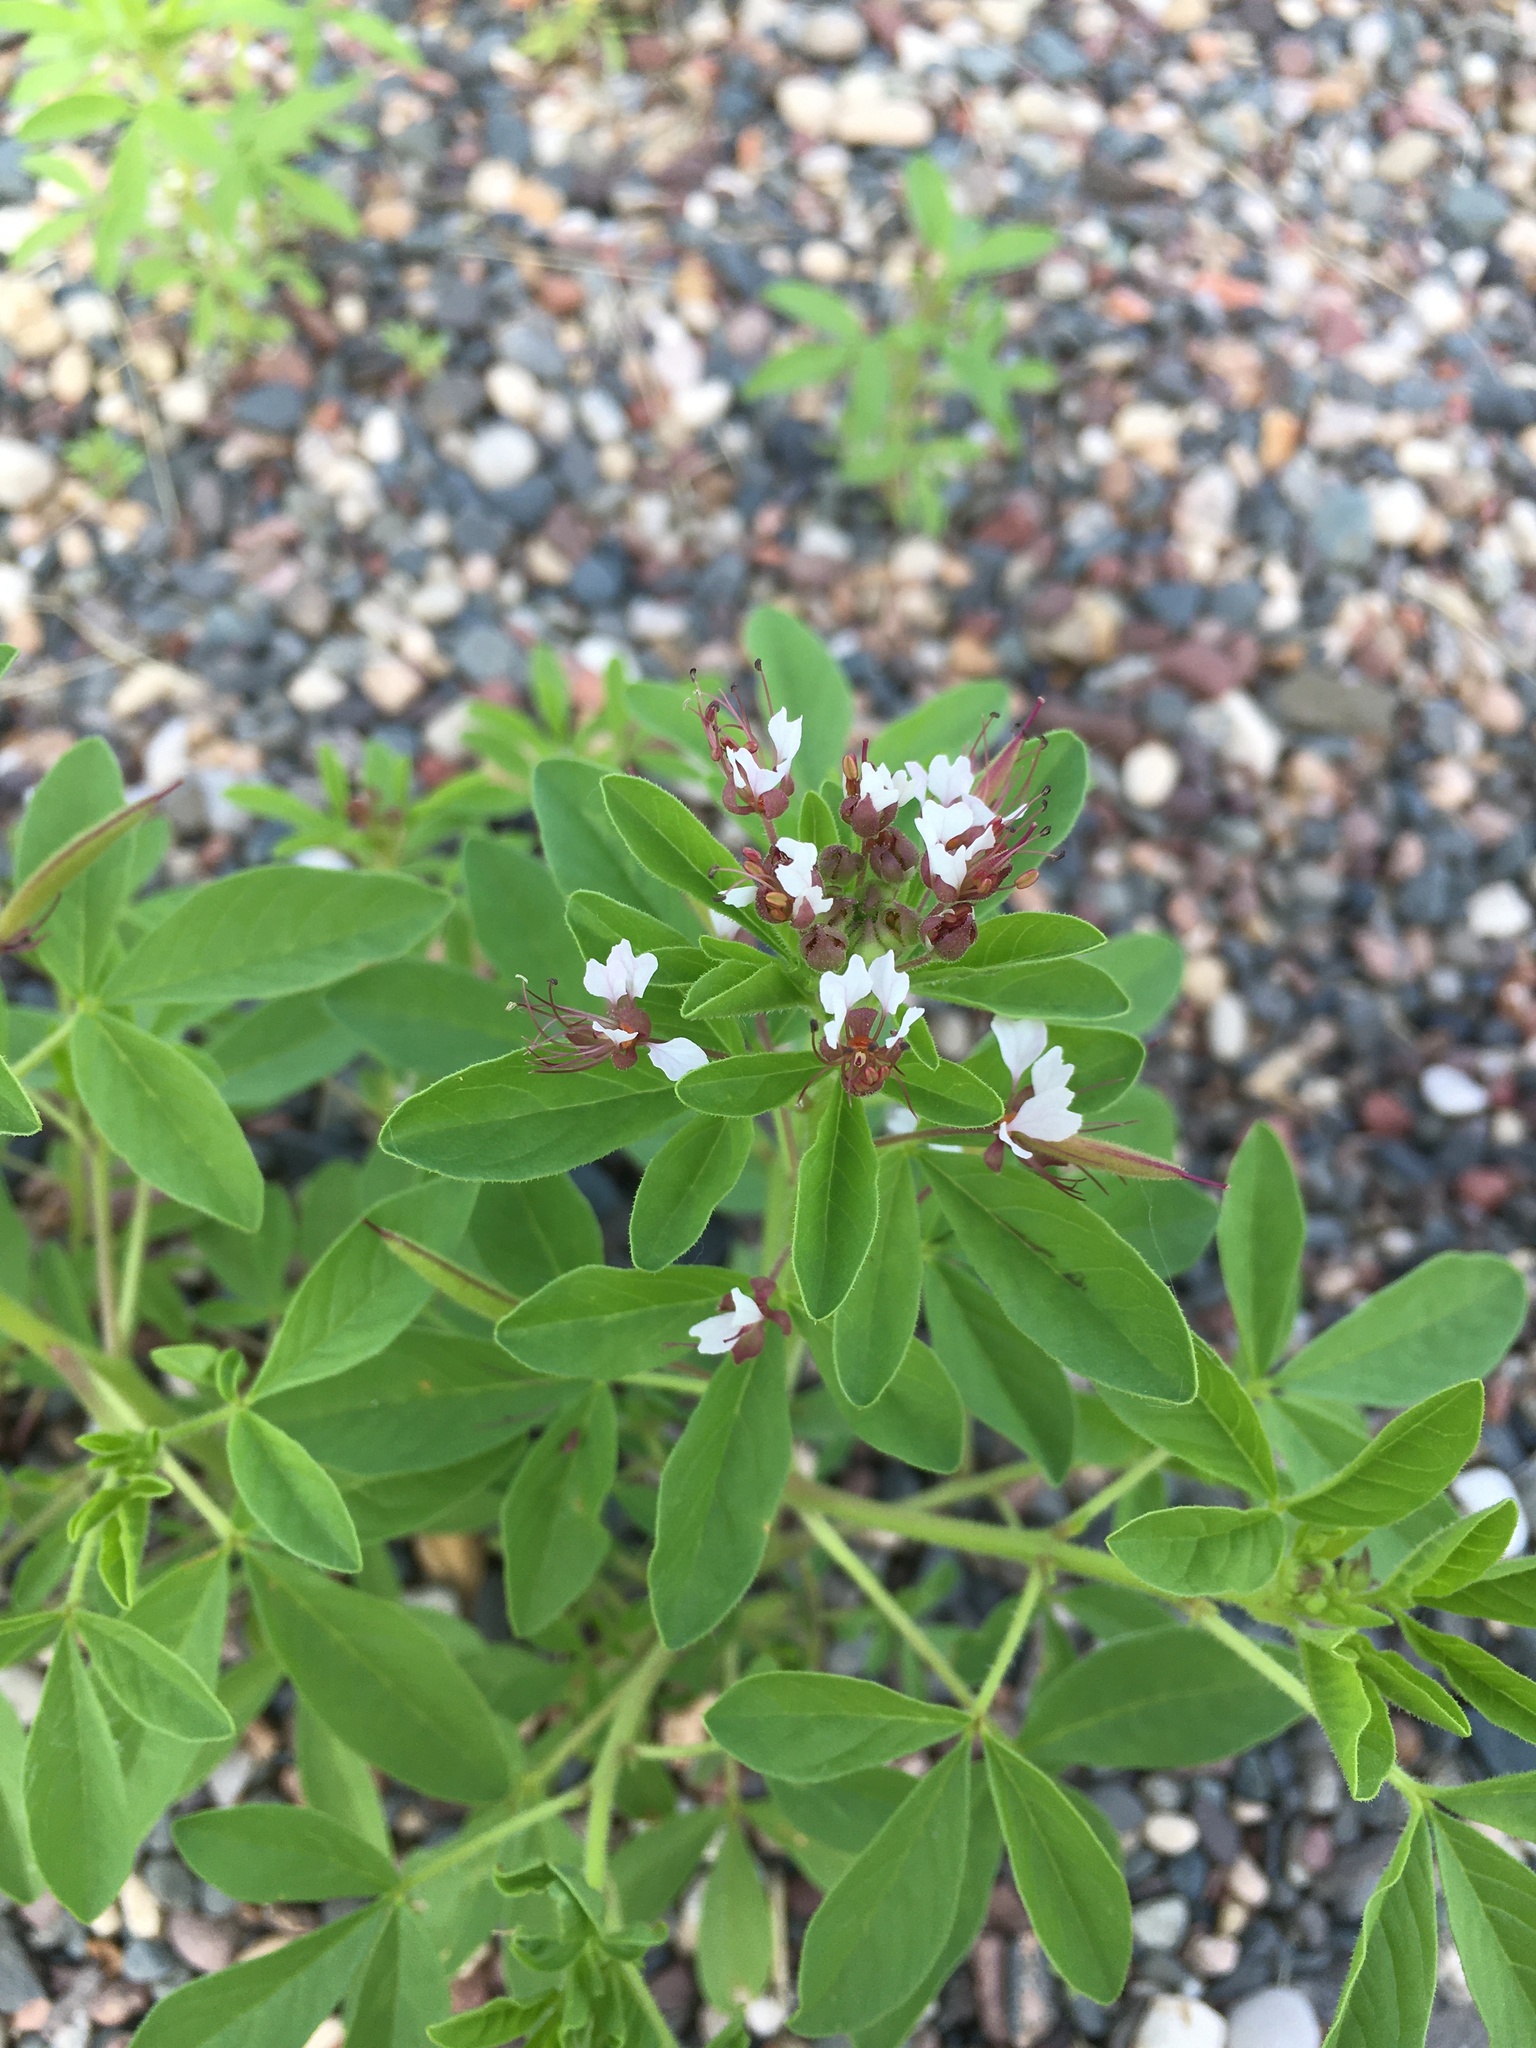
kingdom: Plantae
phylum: Tracheophyta
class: Magnoliopsida
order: Brassicales
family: Cleomaceae
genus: Polanisia
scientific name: Polanisia dodecandra
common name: Clammyweed
